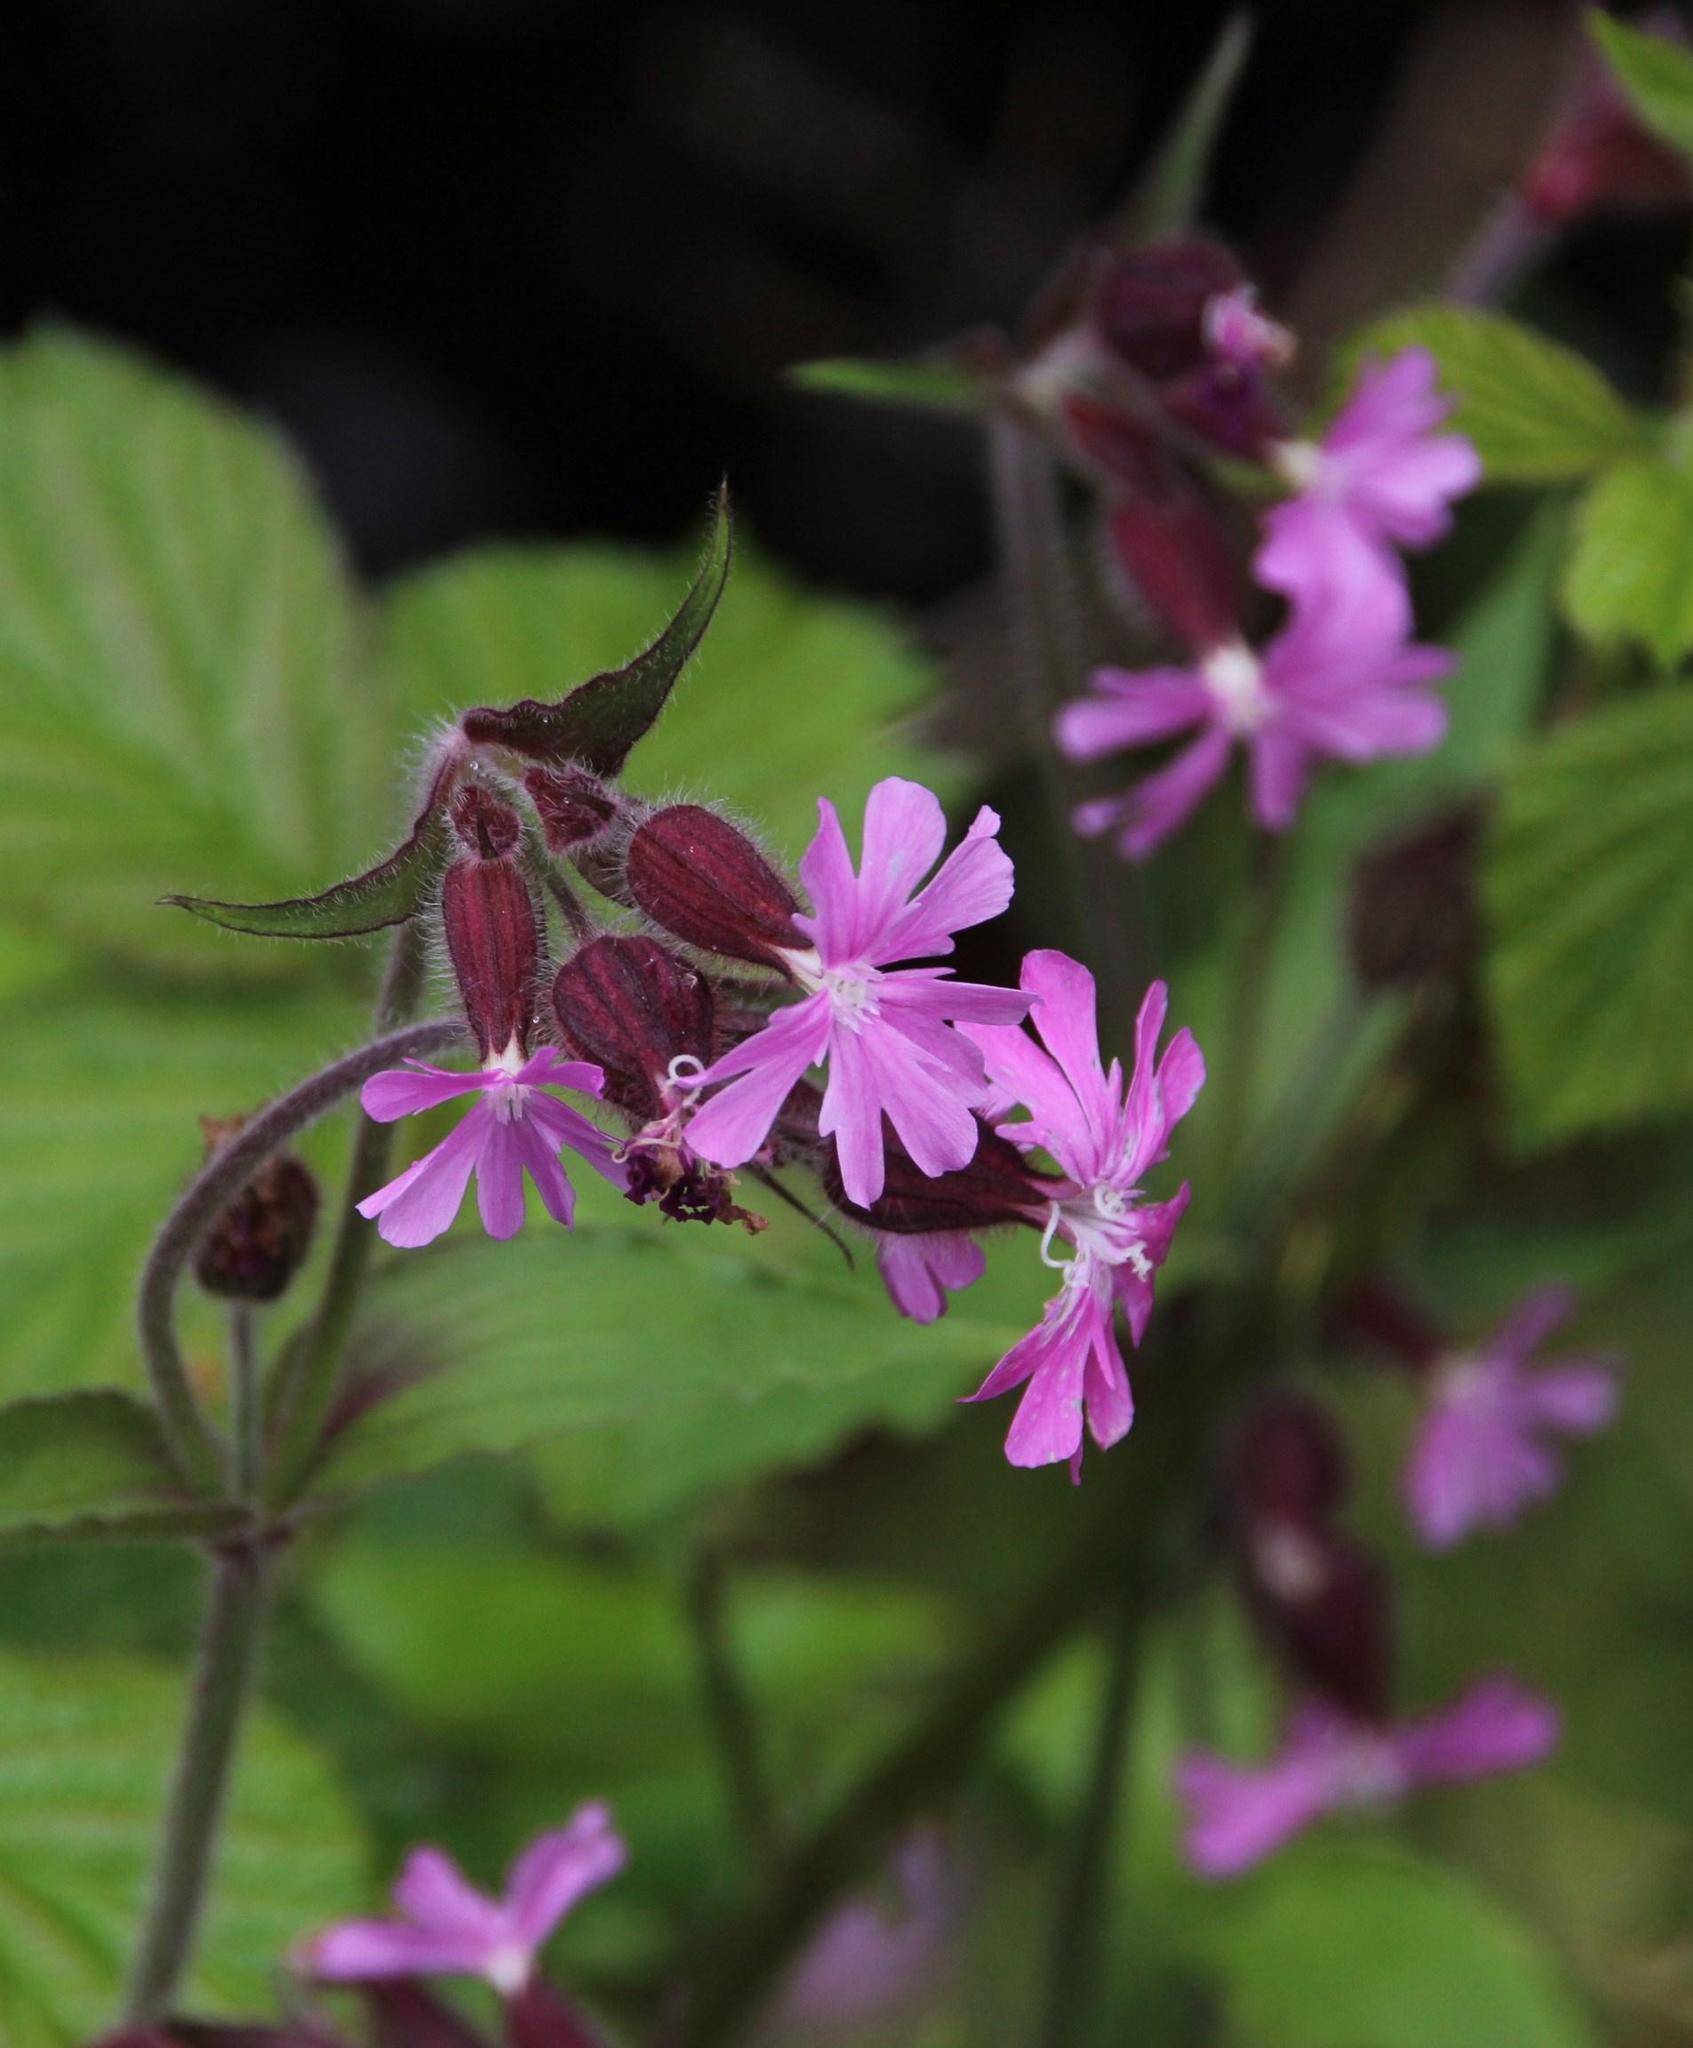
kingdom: Plantae
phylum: Tracheophyta
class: Magnoliopsida
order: Caryophyllales
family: Caryophyllaceae
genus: Silene
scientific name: Silene dioica
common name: Red campion
